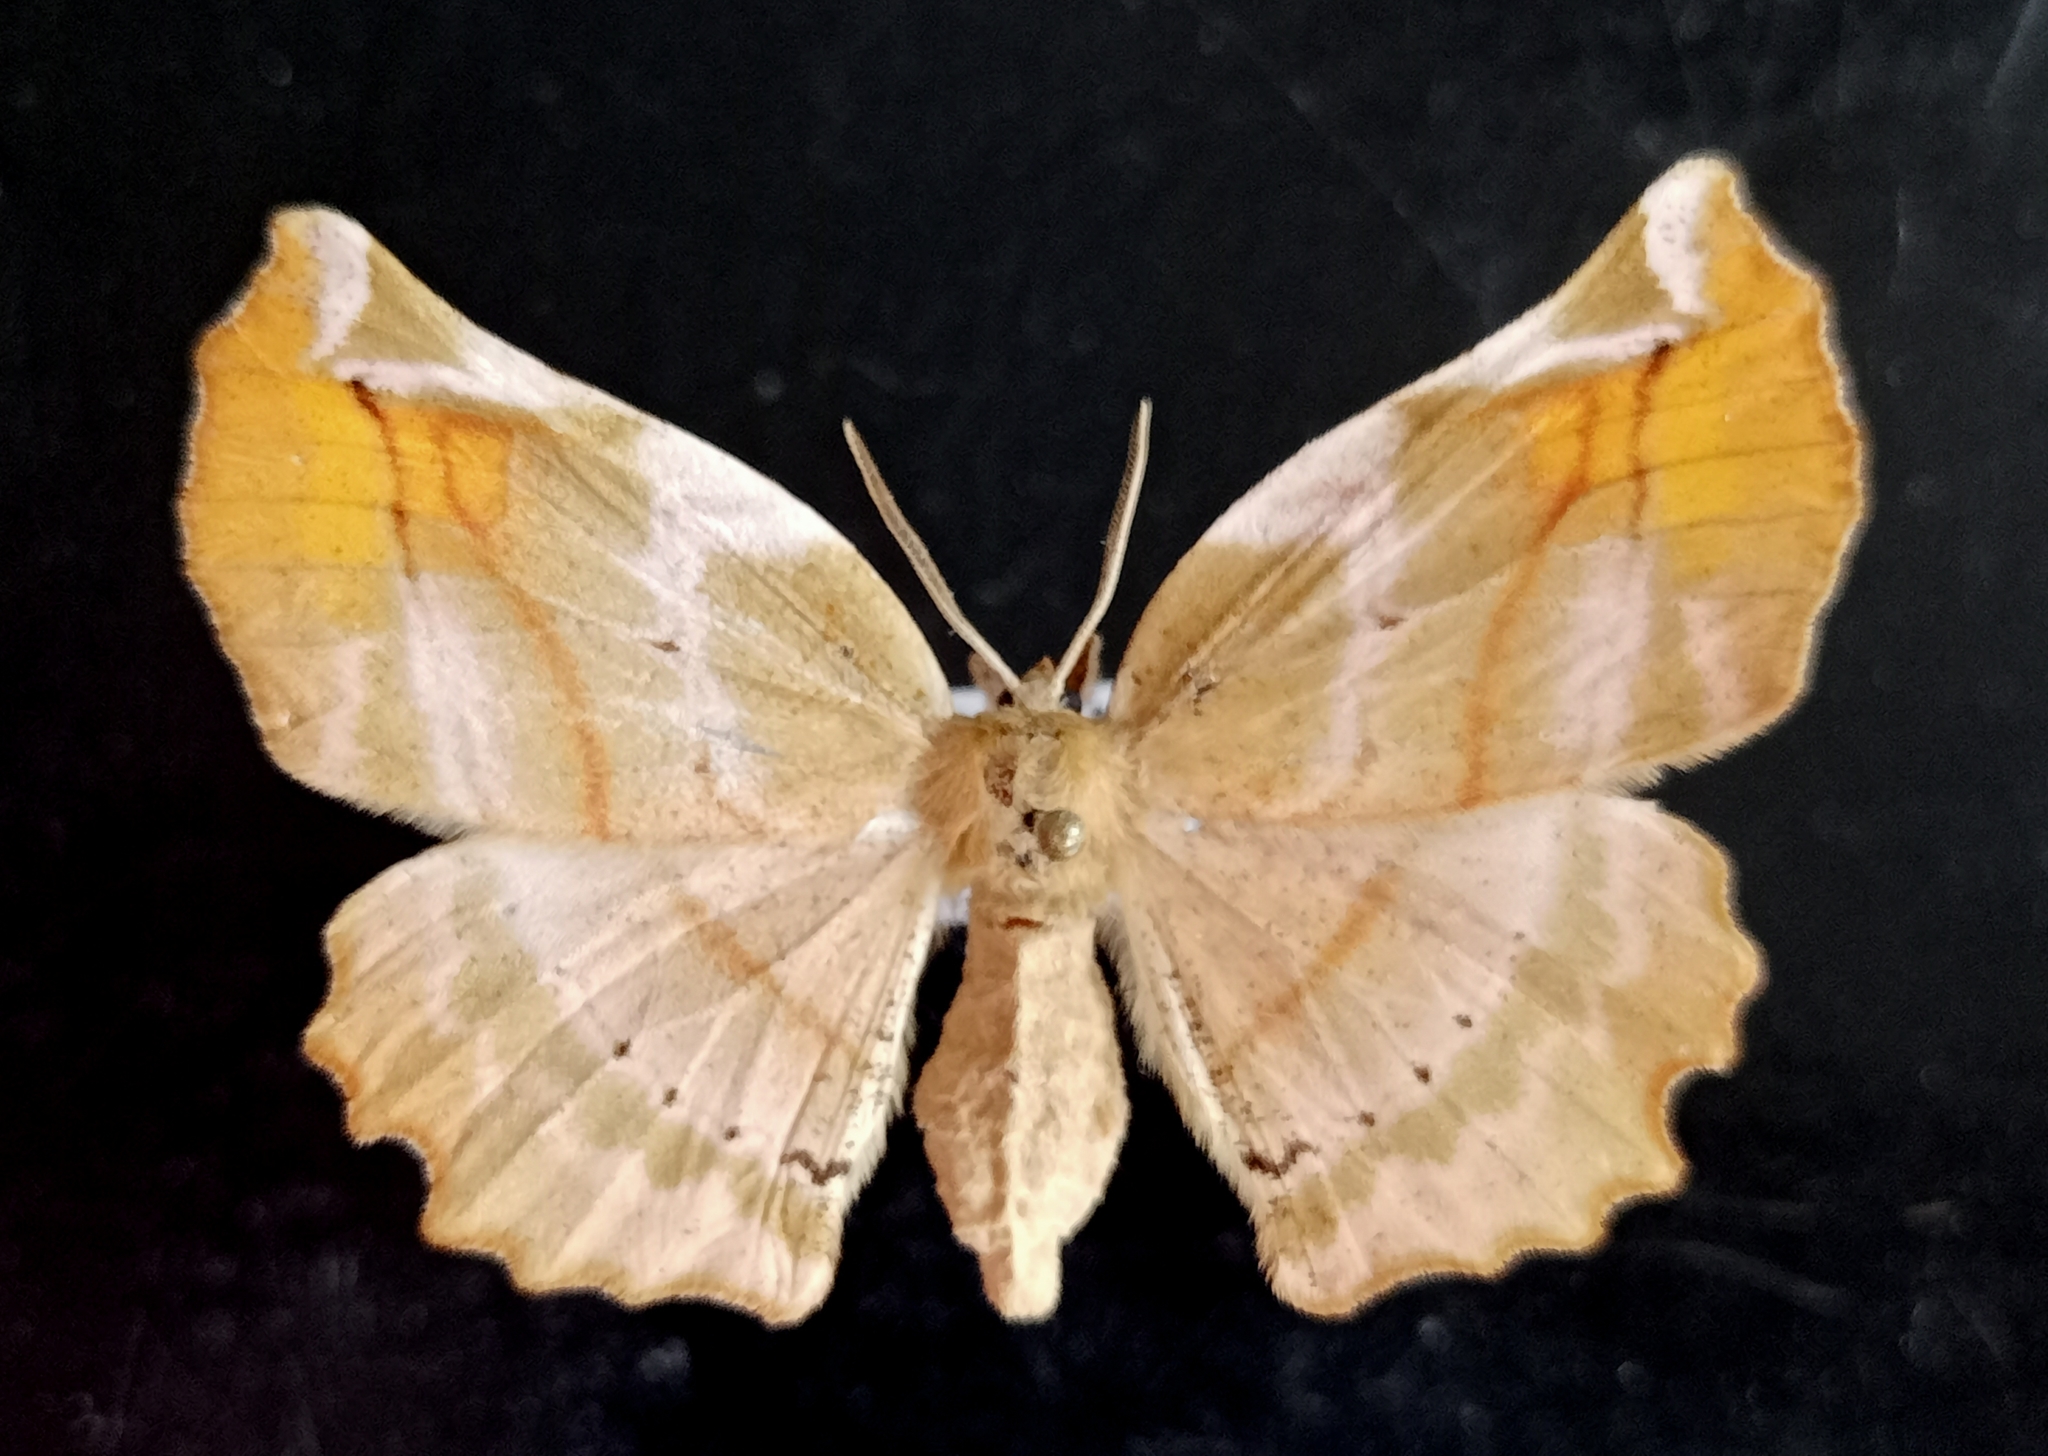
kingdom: Animalia
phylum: Arthropoda
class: Insecta
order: Lepidoptera
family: Geometridae
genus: Apeira
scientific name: Apeira syringaria
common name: Lilac beauty
